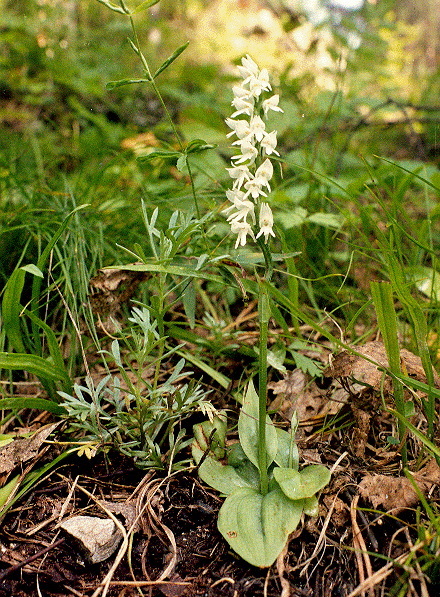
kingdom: Plantae
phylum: Tracheophyta
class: Liliopsida
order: Asparagales
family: Orchidaceae
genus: Hemipilia
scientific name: Hemipilia cucullata
